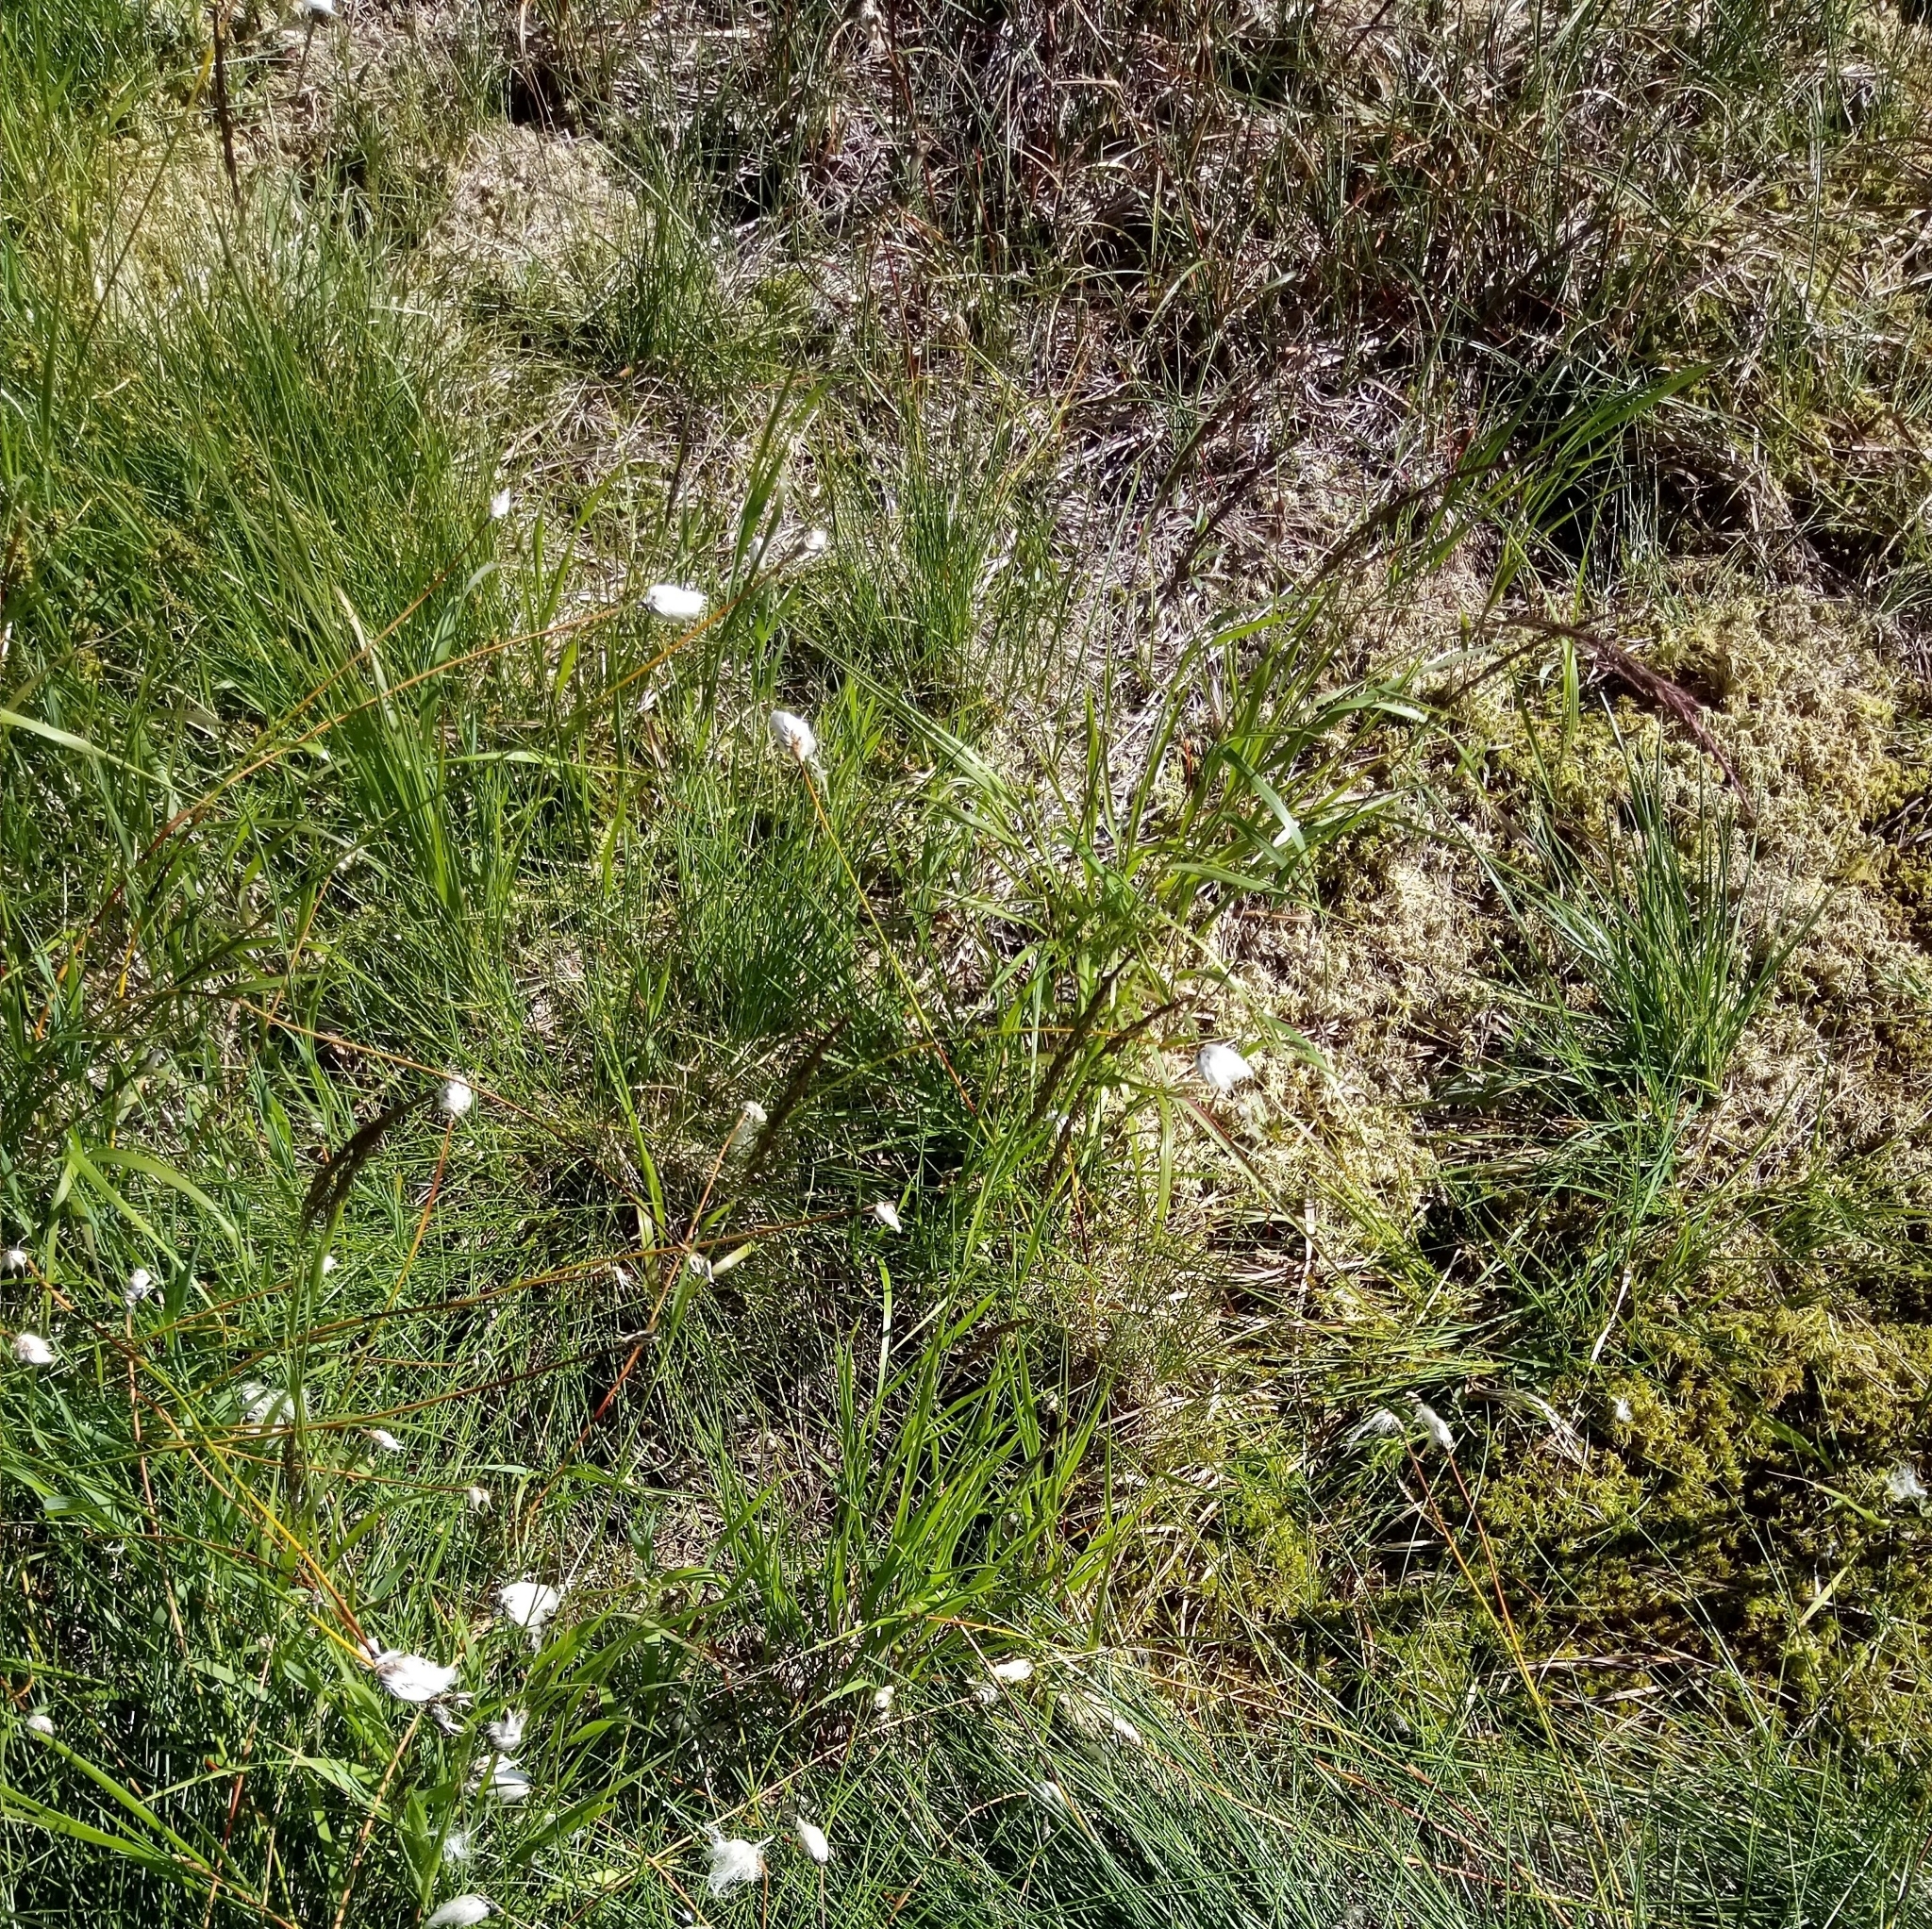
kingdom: Plantae
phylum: Tracheophyta
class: Liliopsida
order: Poales
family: Poaceae
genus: Calamagrostis
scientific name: Calamagrostis villosa
